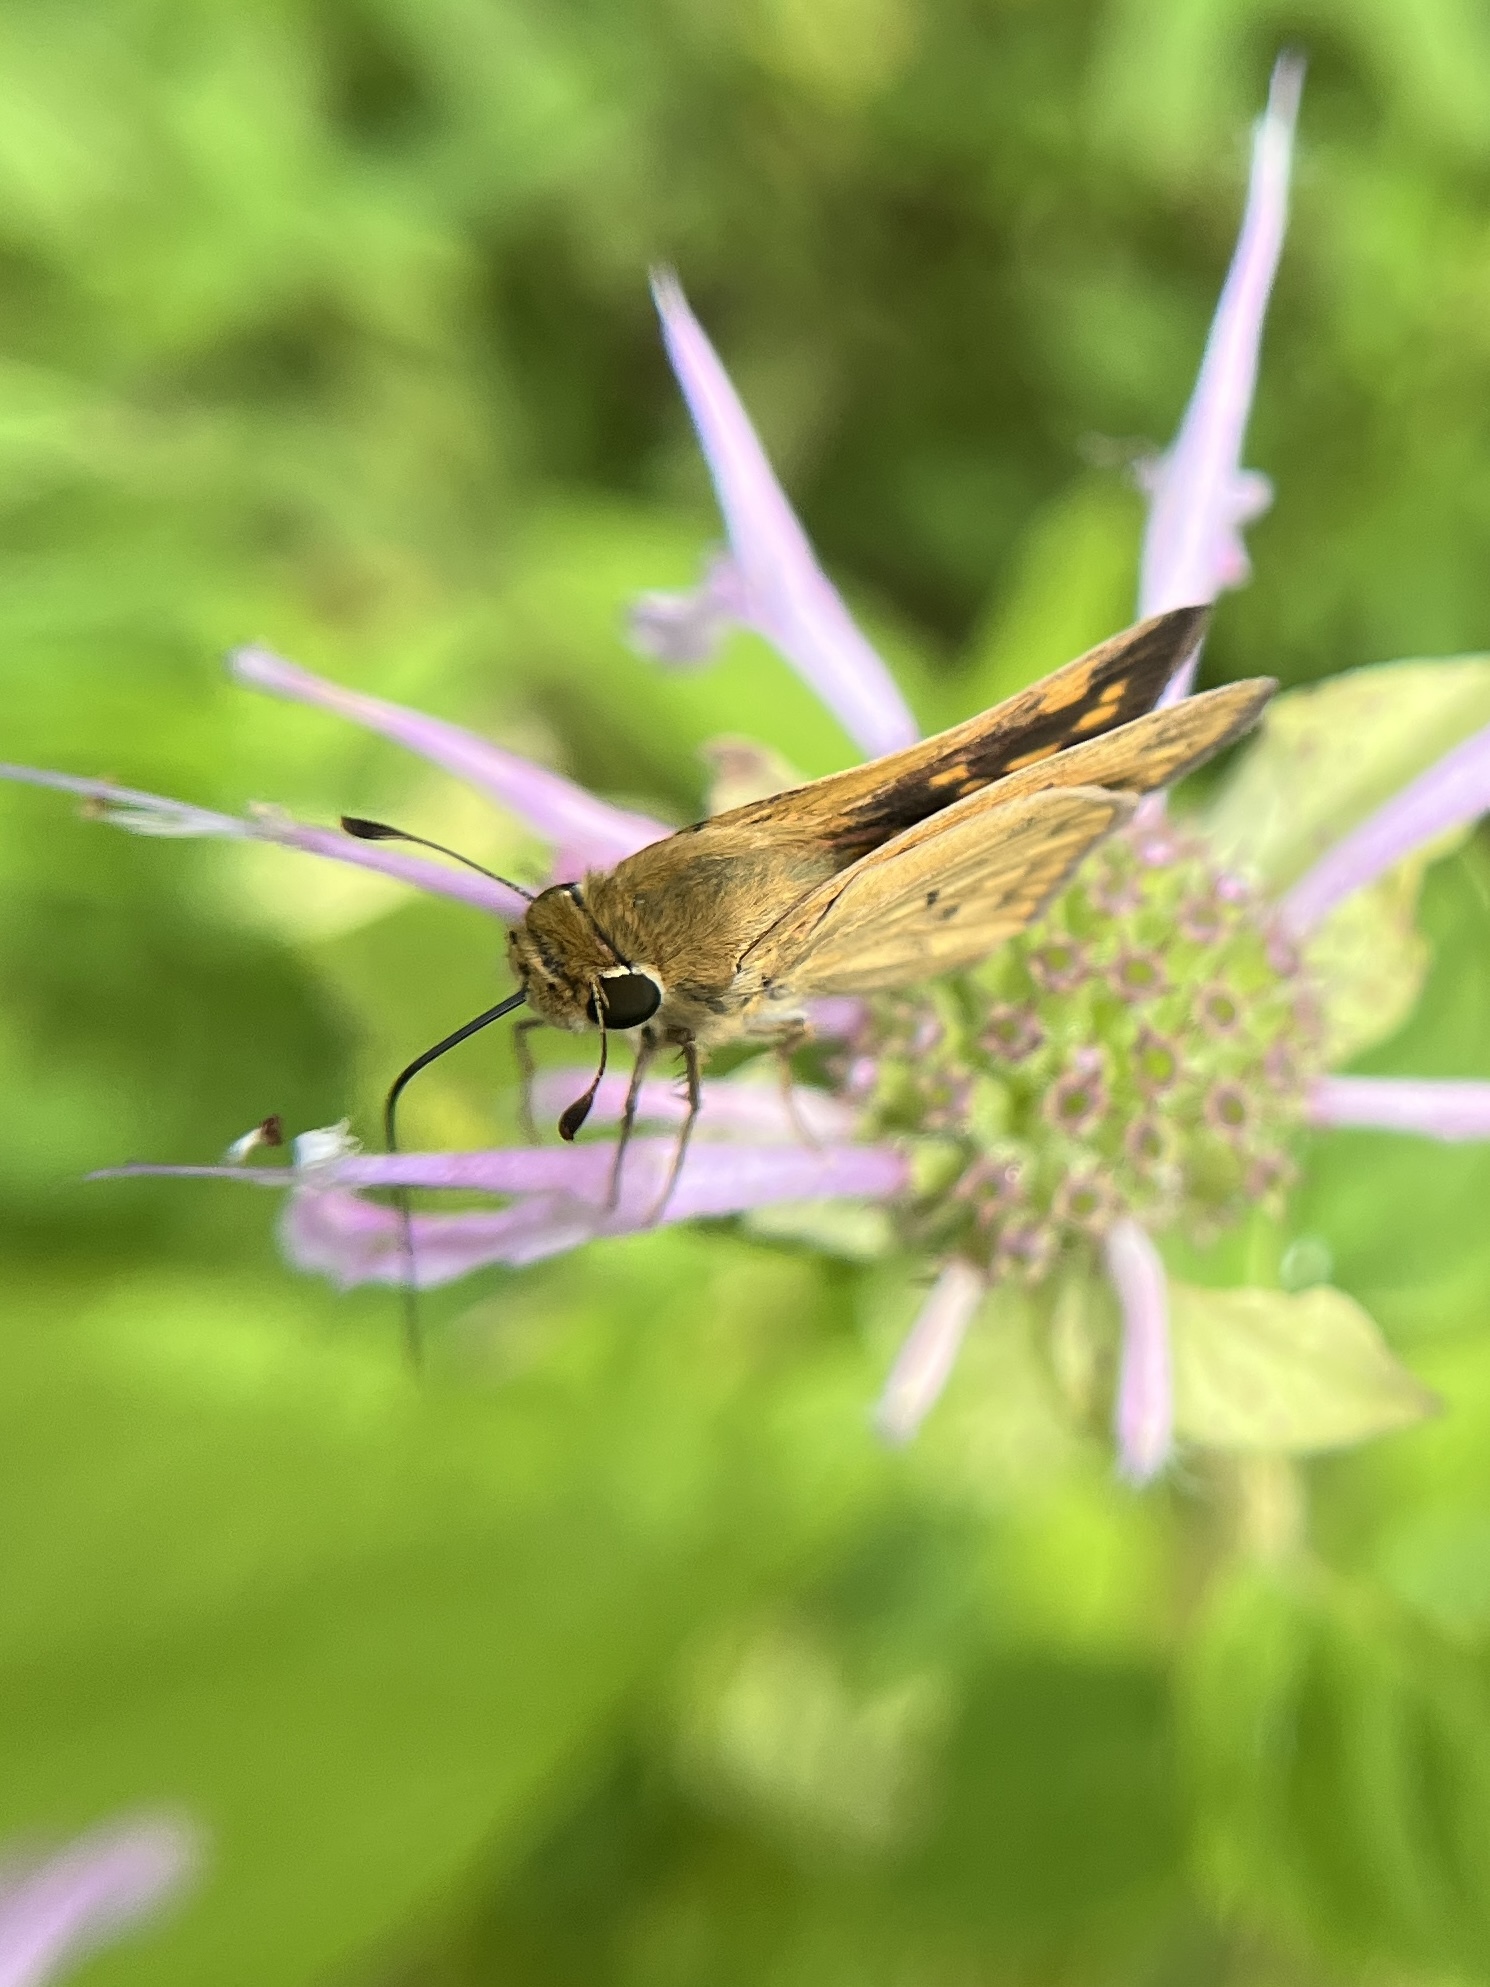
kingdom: Animalia
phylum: Arthropoda
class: Insecta
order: Lepidoptera
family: Hesperiidae
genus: Hylephila
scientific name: Hylephila phyleus
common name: Fiery skipper
